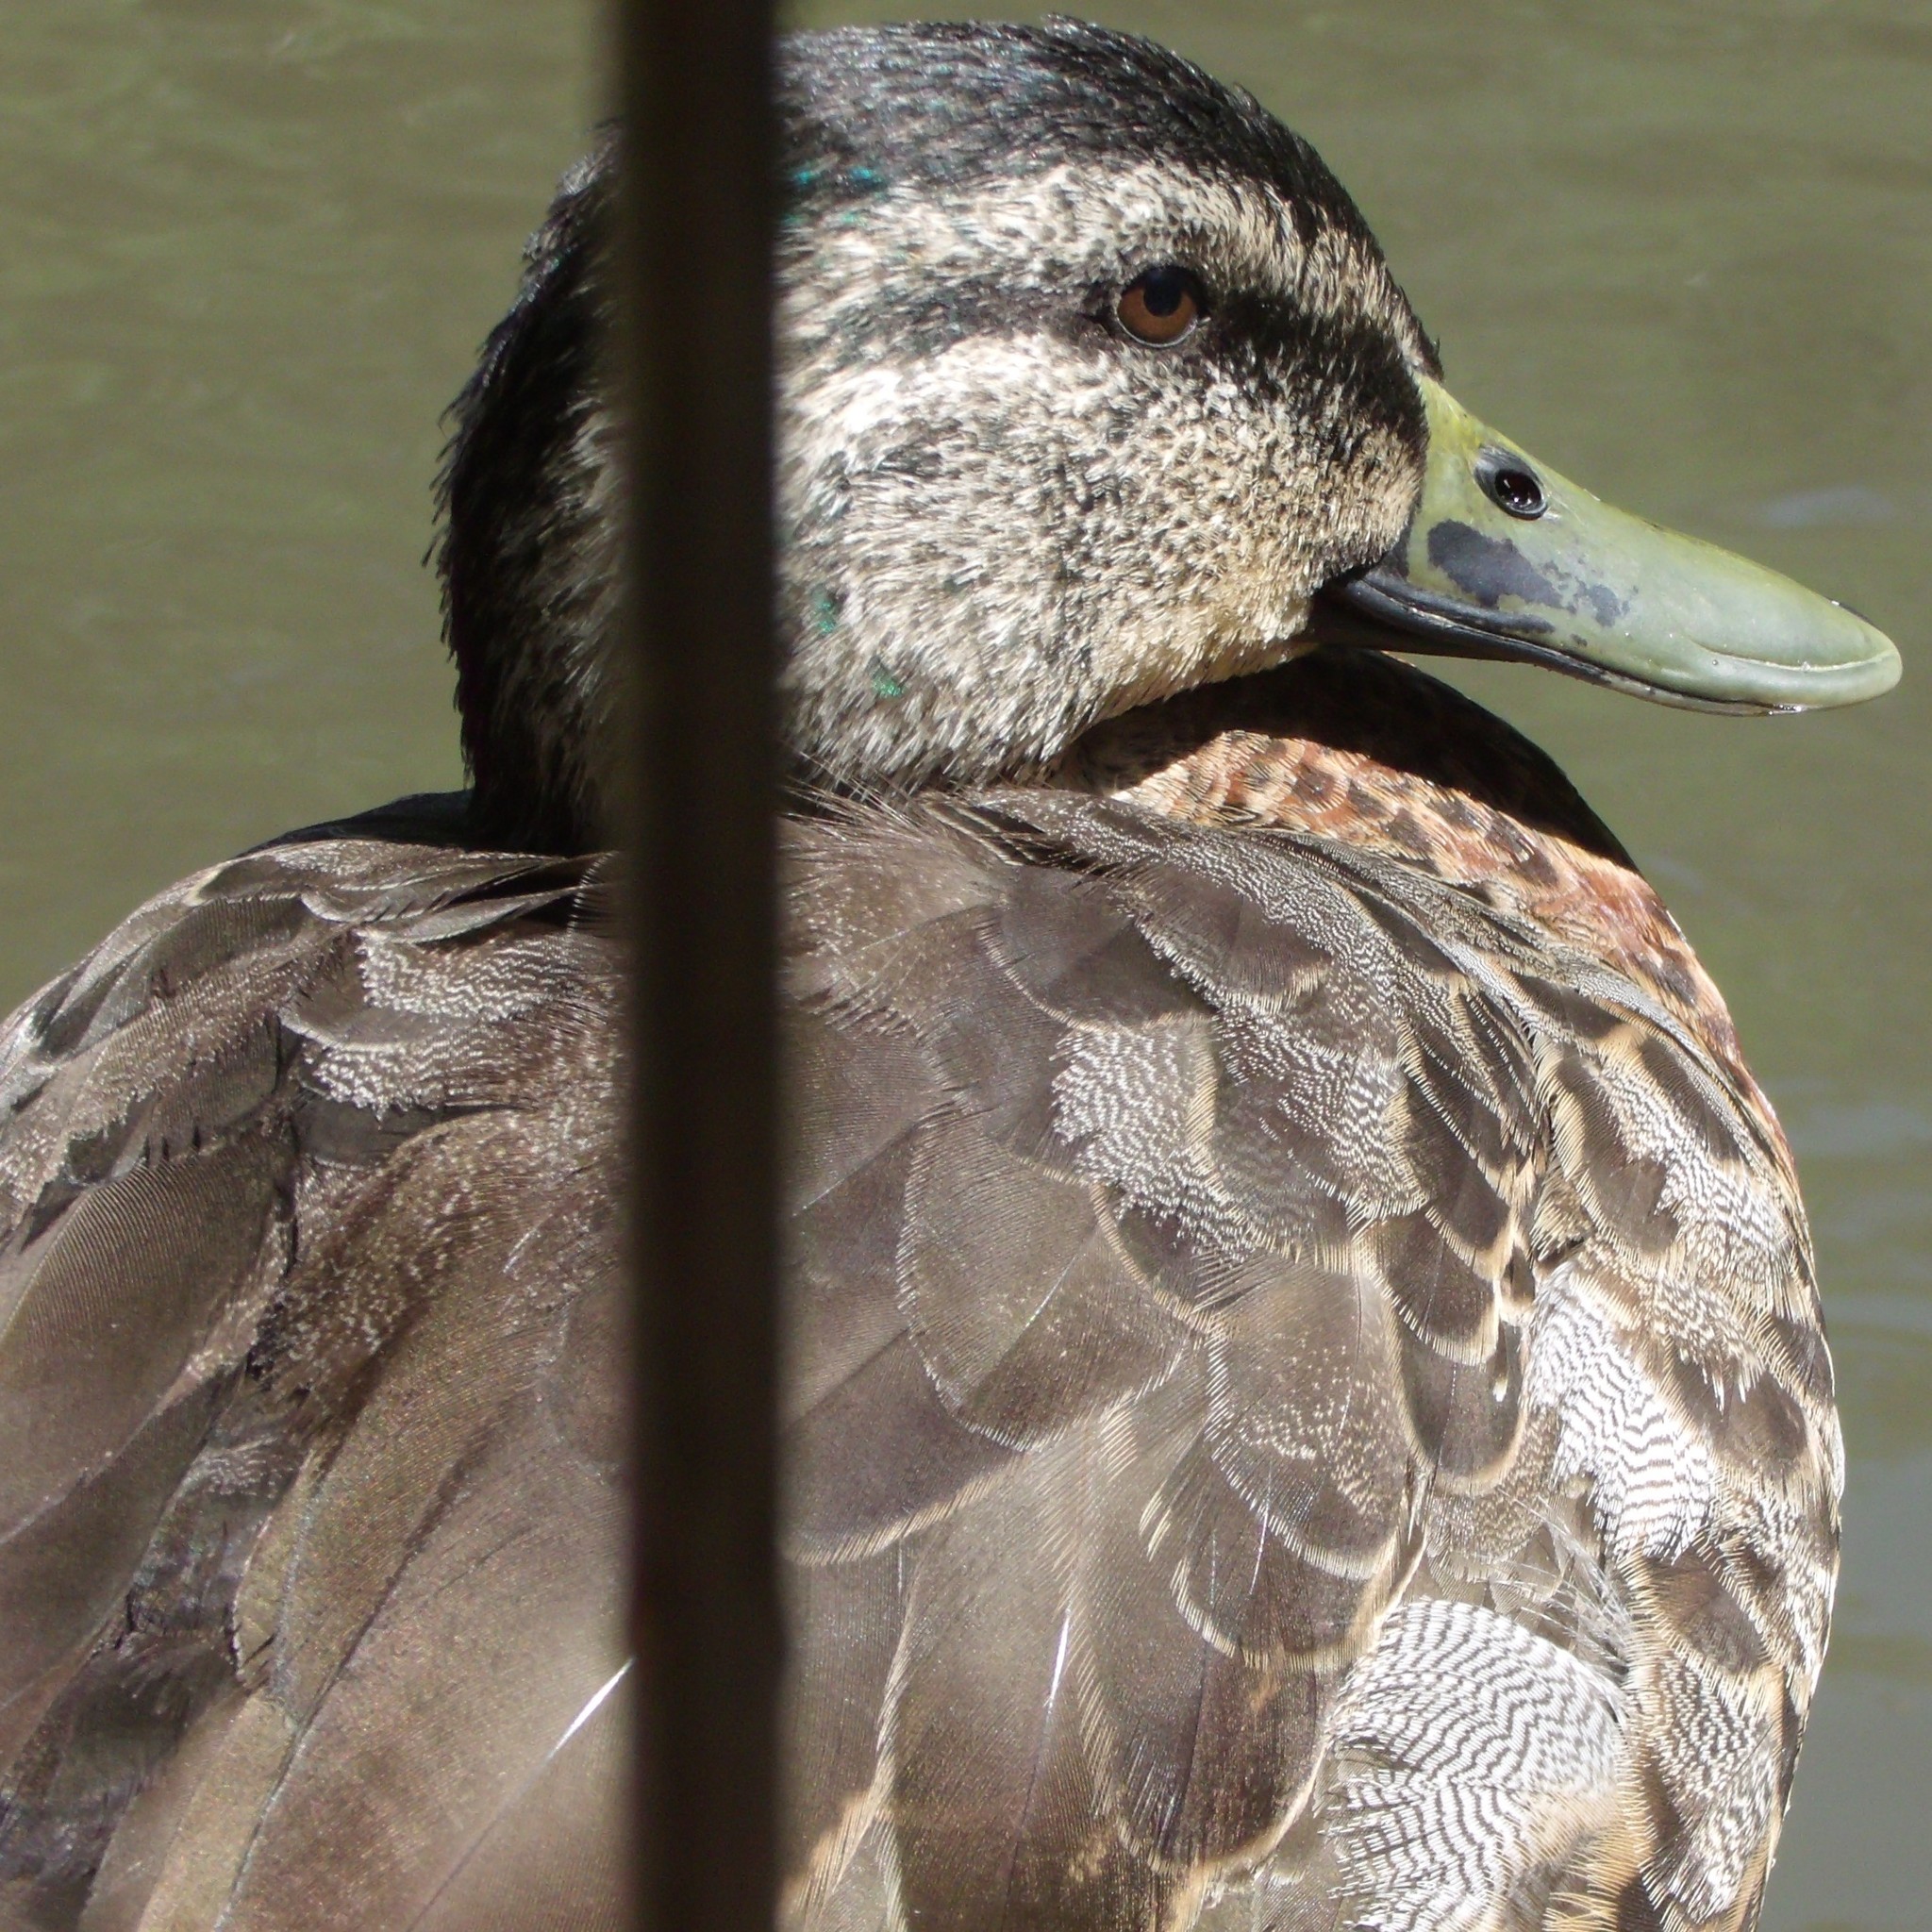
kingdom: Animalia
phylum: Chordata
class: Aves
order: Anseriformes
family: Anatidae
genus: Anas
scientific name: Anas
